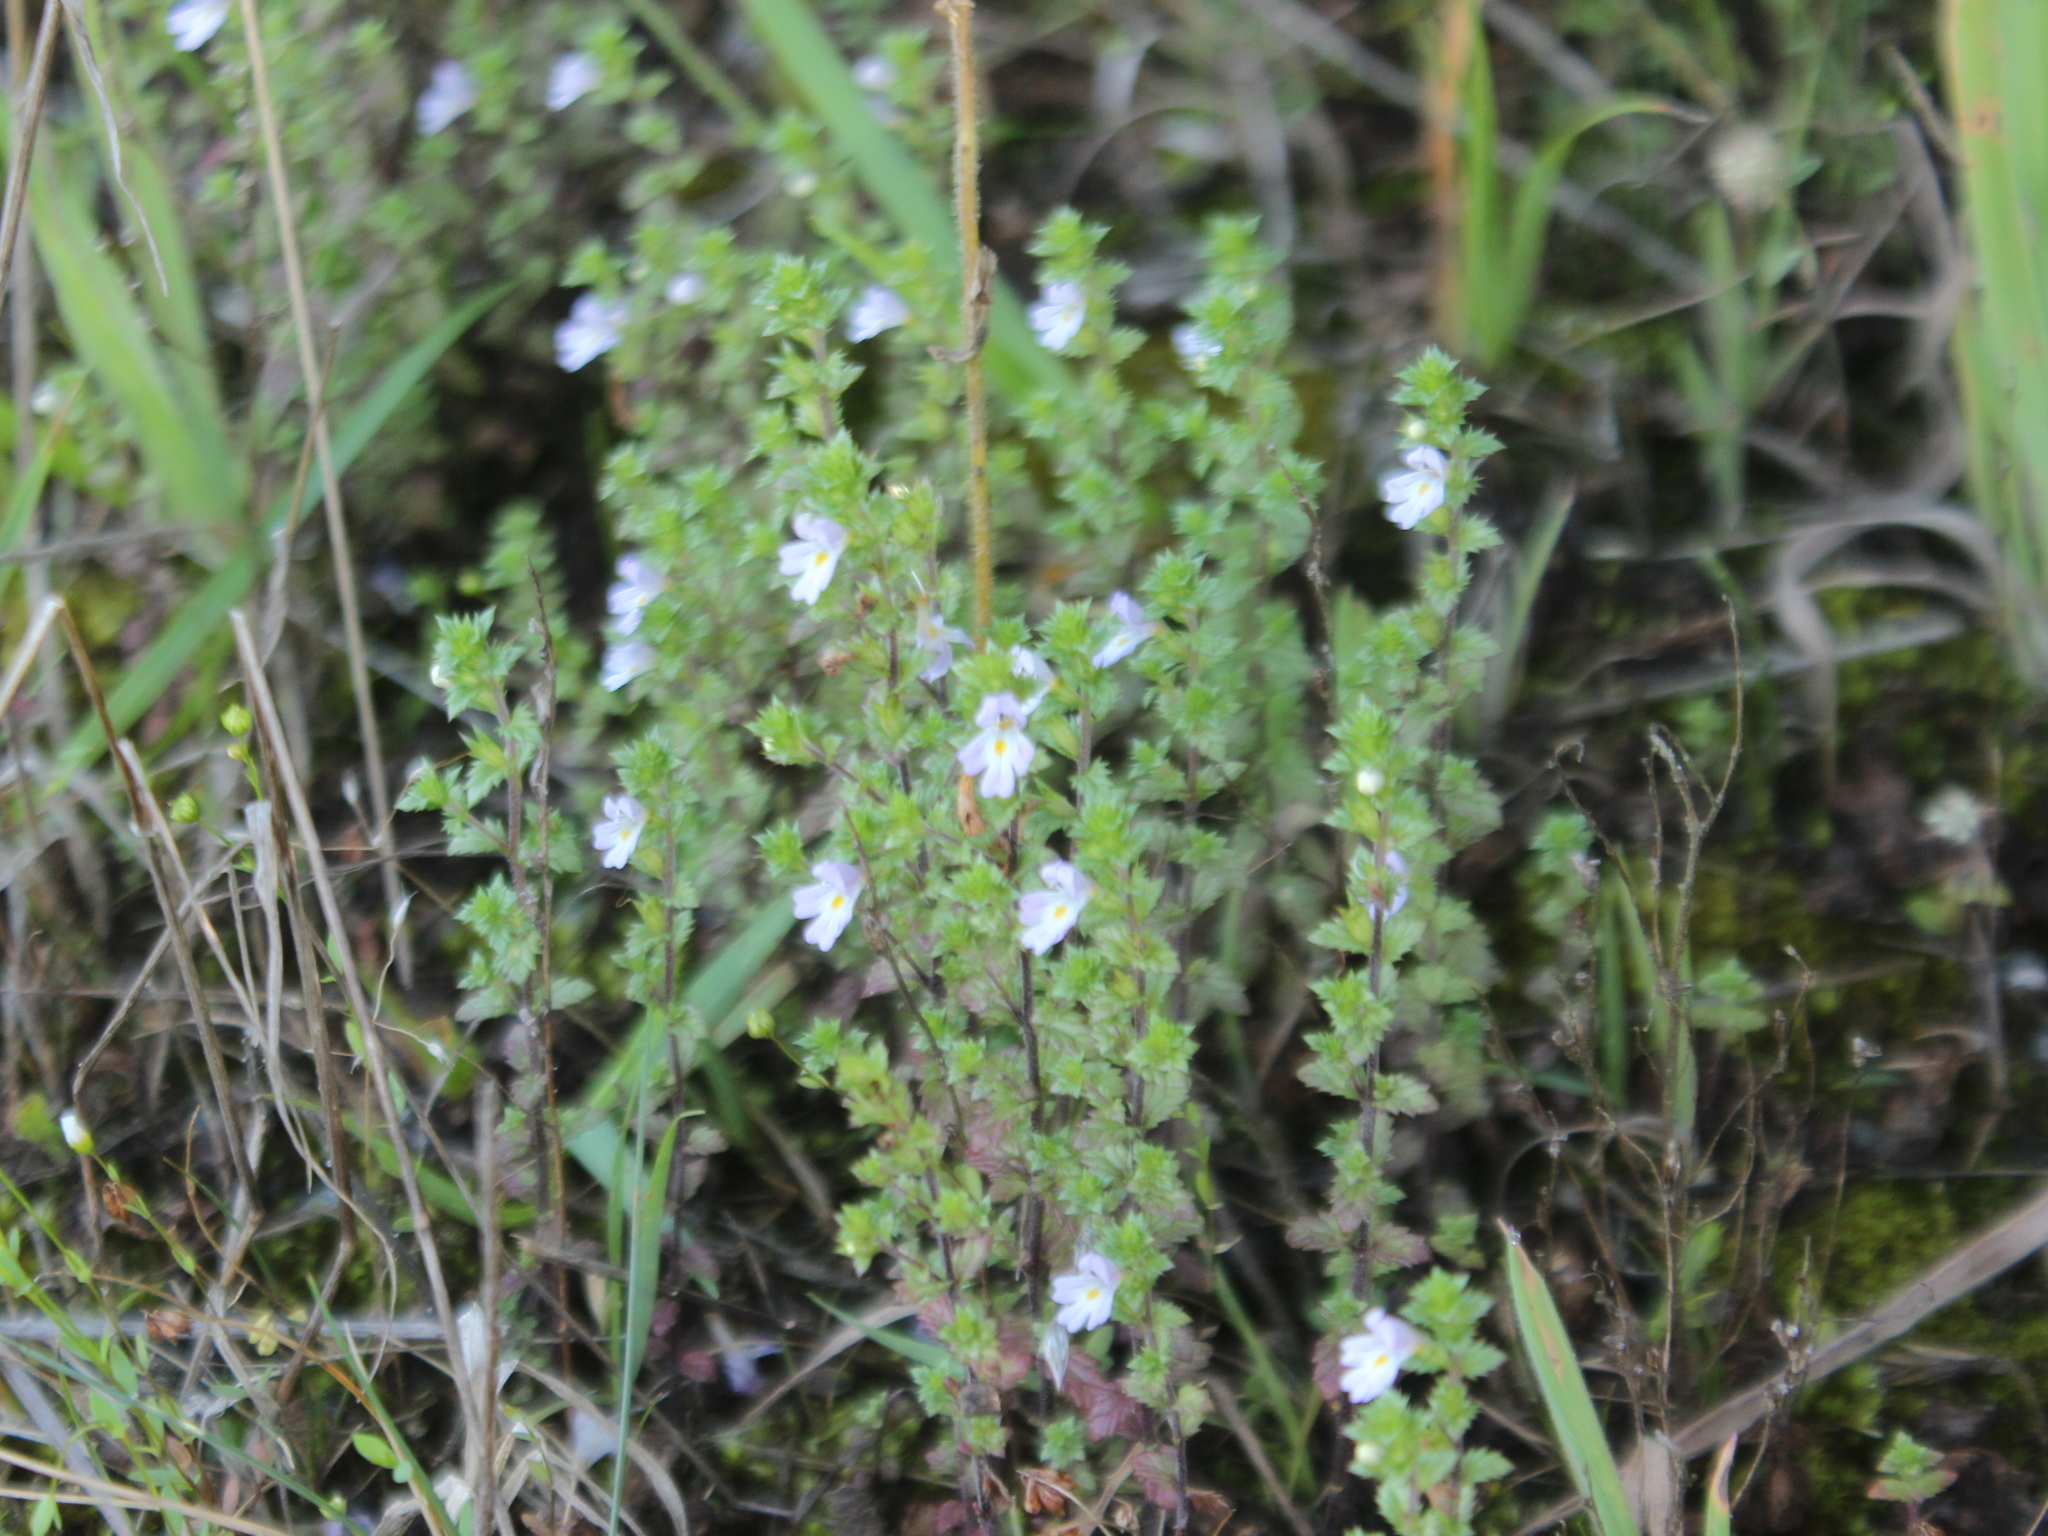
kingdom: Plantae
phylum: Tracheophyta
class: Magnoliopsida
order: Lamiales
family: Orobanchaceae
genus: Euphrasia
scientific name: Euphrasia nemorosa
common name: Common eyebright
